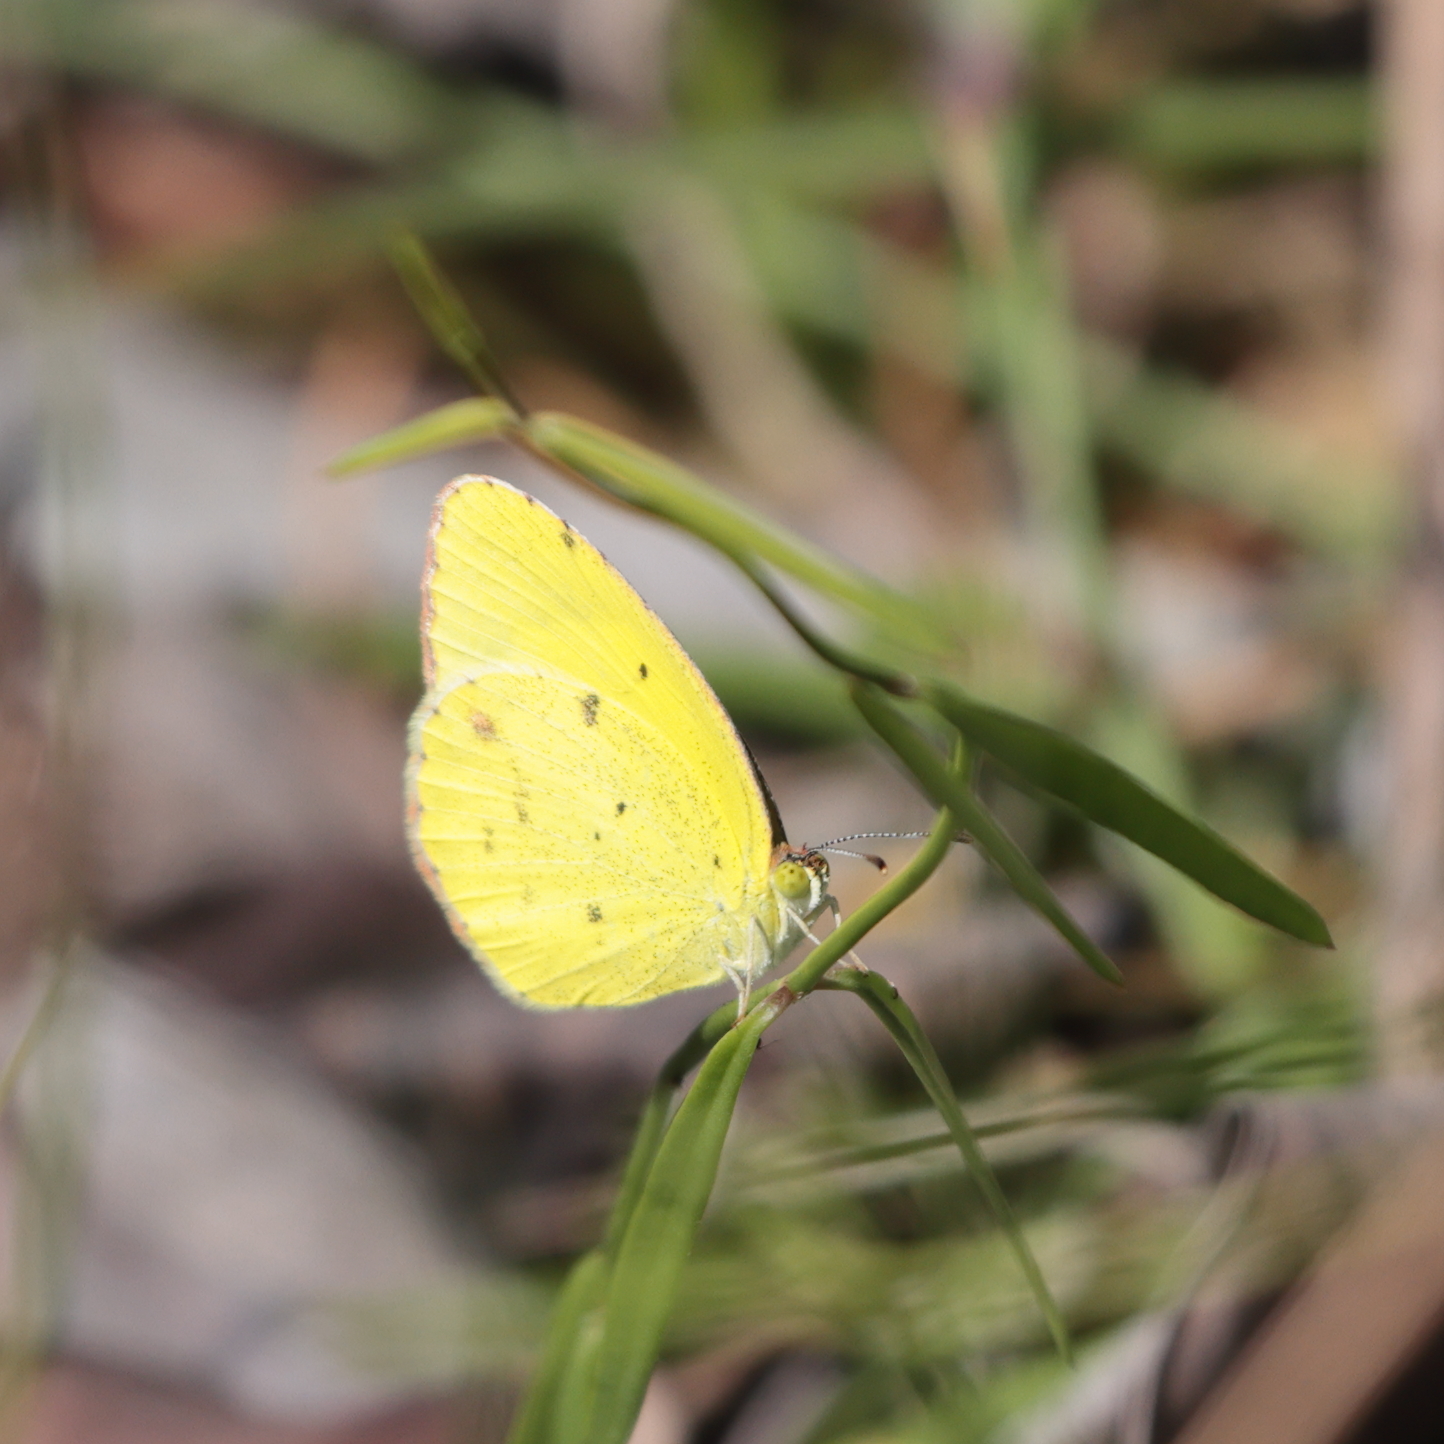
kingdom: Animalia
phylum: Arthropoda
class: Insecta
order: Lepidoptera
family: Pieridae
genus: Pyrisitia
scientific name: Pyrisitia lisa
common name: Little yellow
